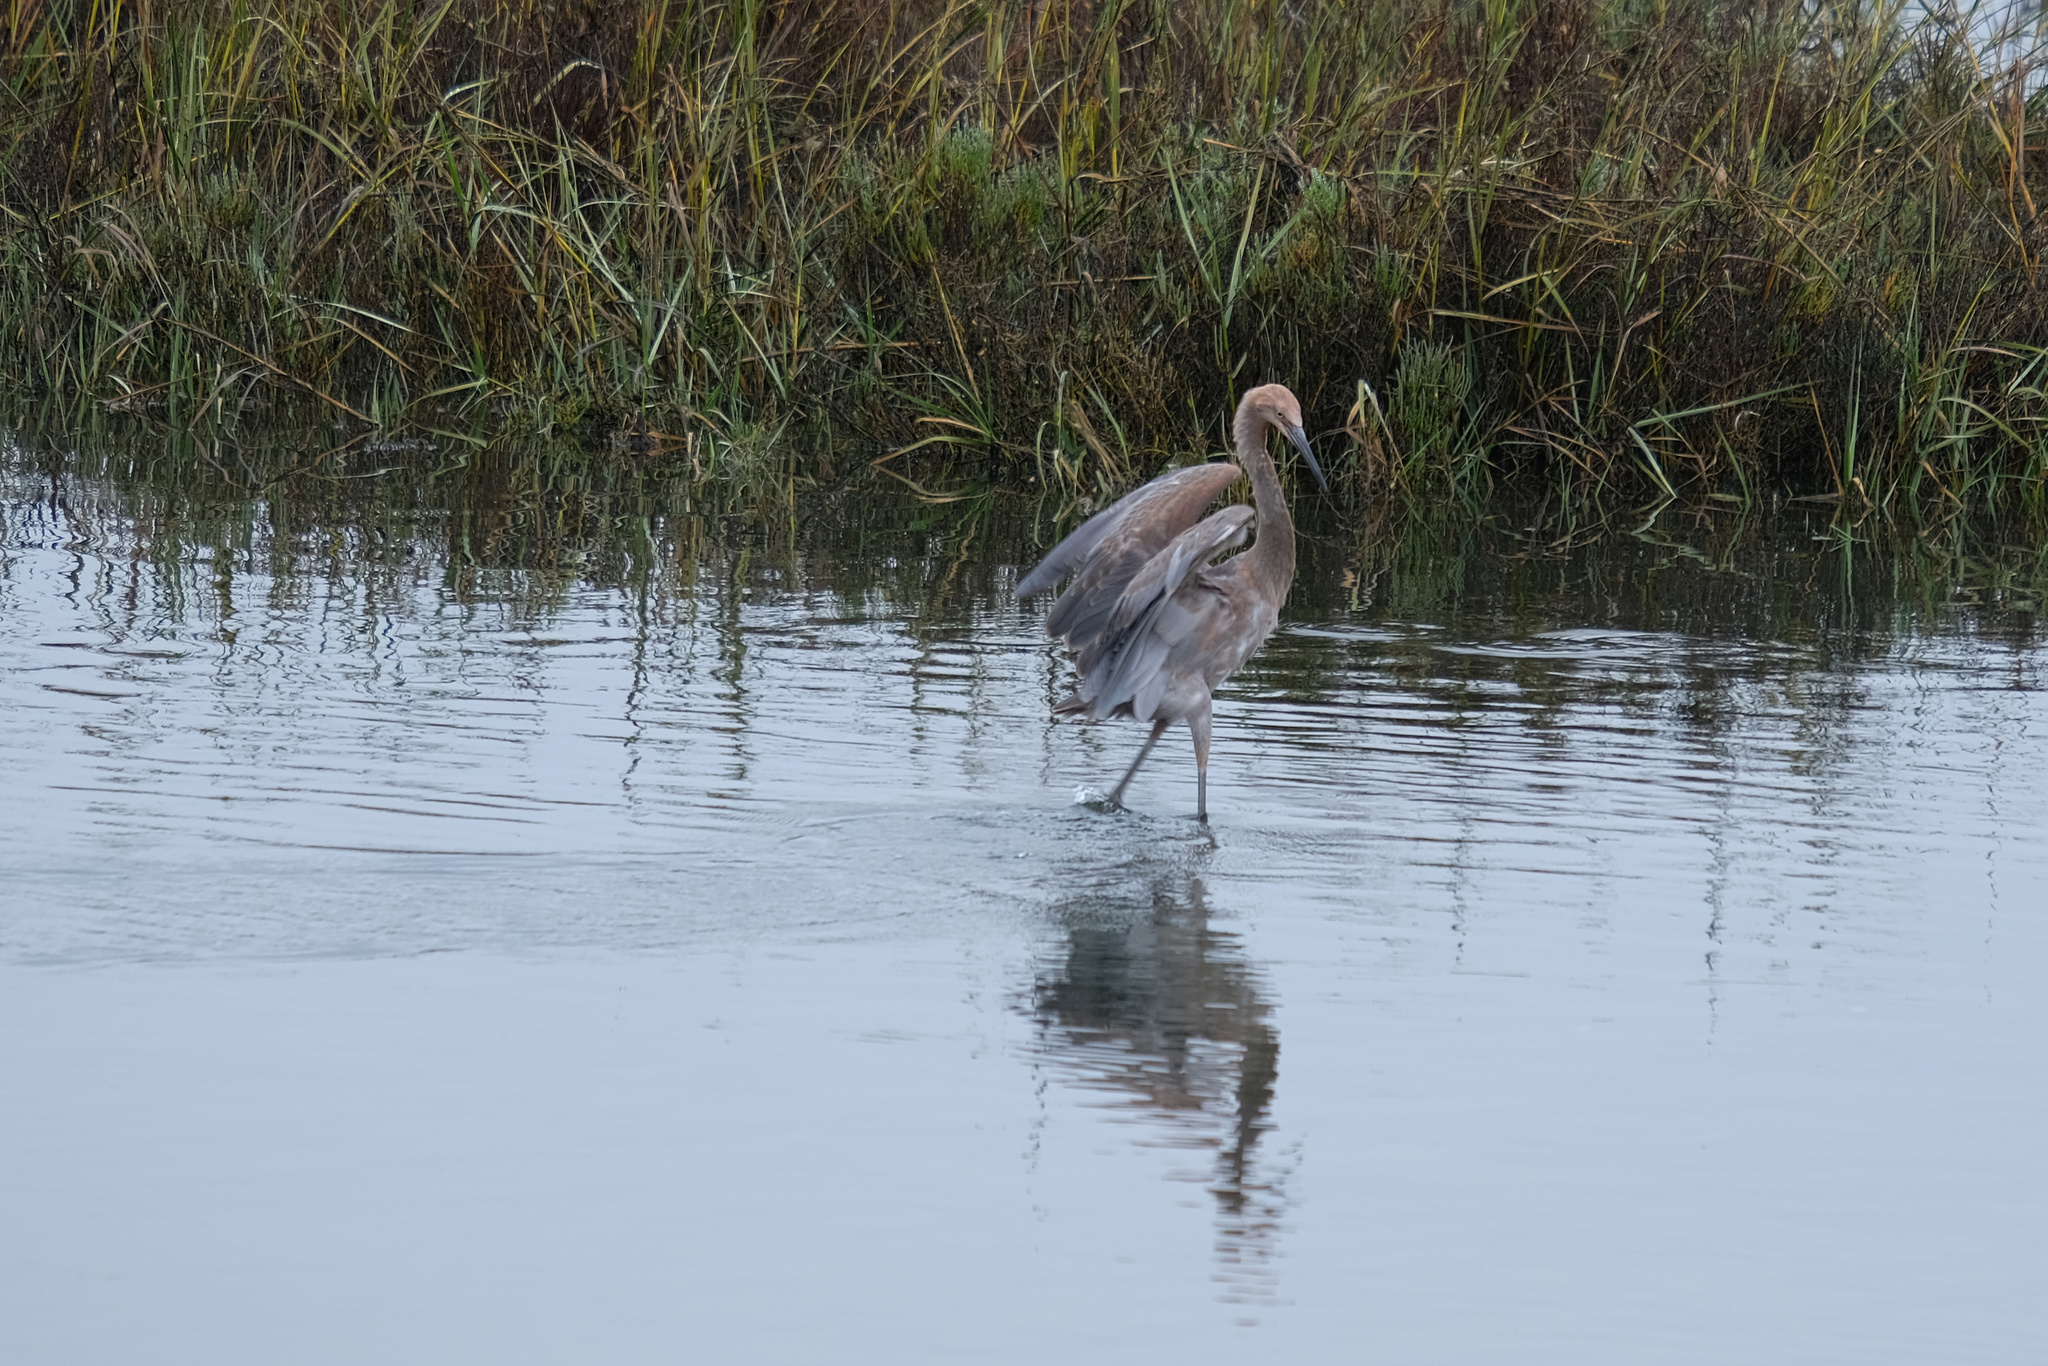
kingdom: Animalia
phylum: Chordata
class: Aves
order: Pelecaniformes
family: Ardeidae
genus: Egretta
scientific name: Egretta rufescens
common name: Reddish egret
